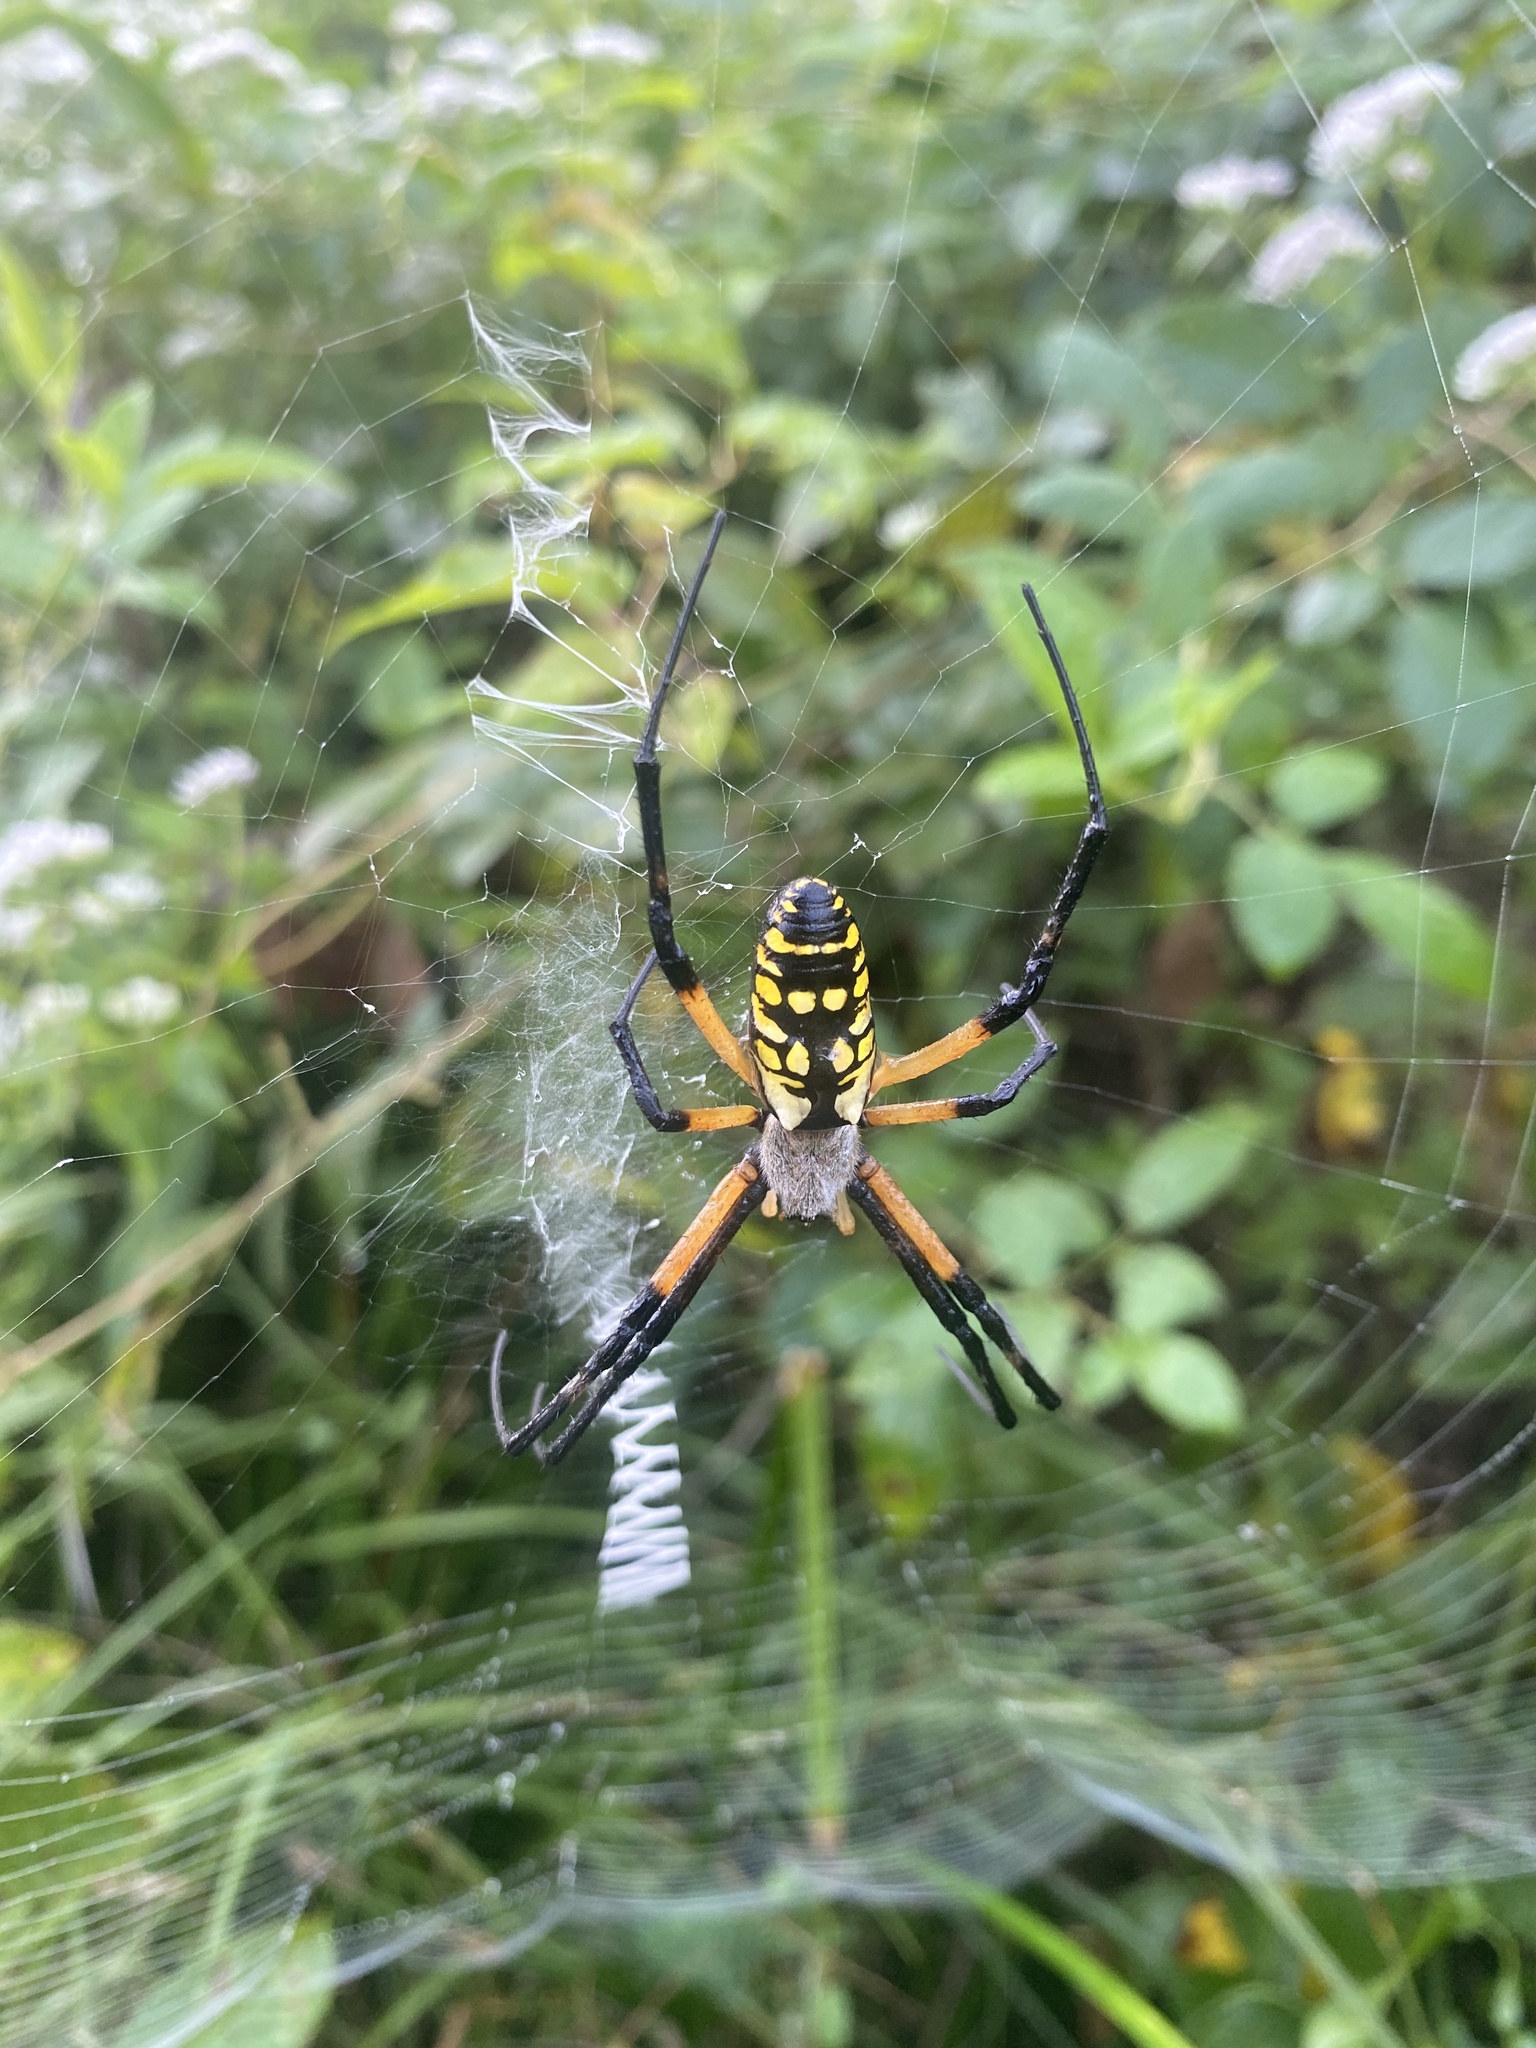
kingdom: Animalia
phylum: Arthropoda
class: Arachnida
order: Araneae
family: Araneidae
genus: Argiope
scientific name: Argiope aurantia
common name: Orb weavers
